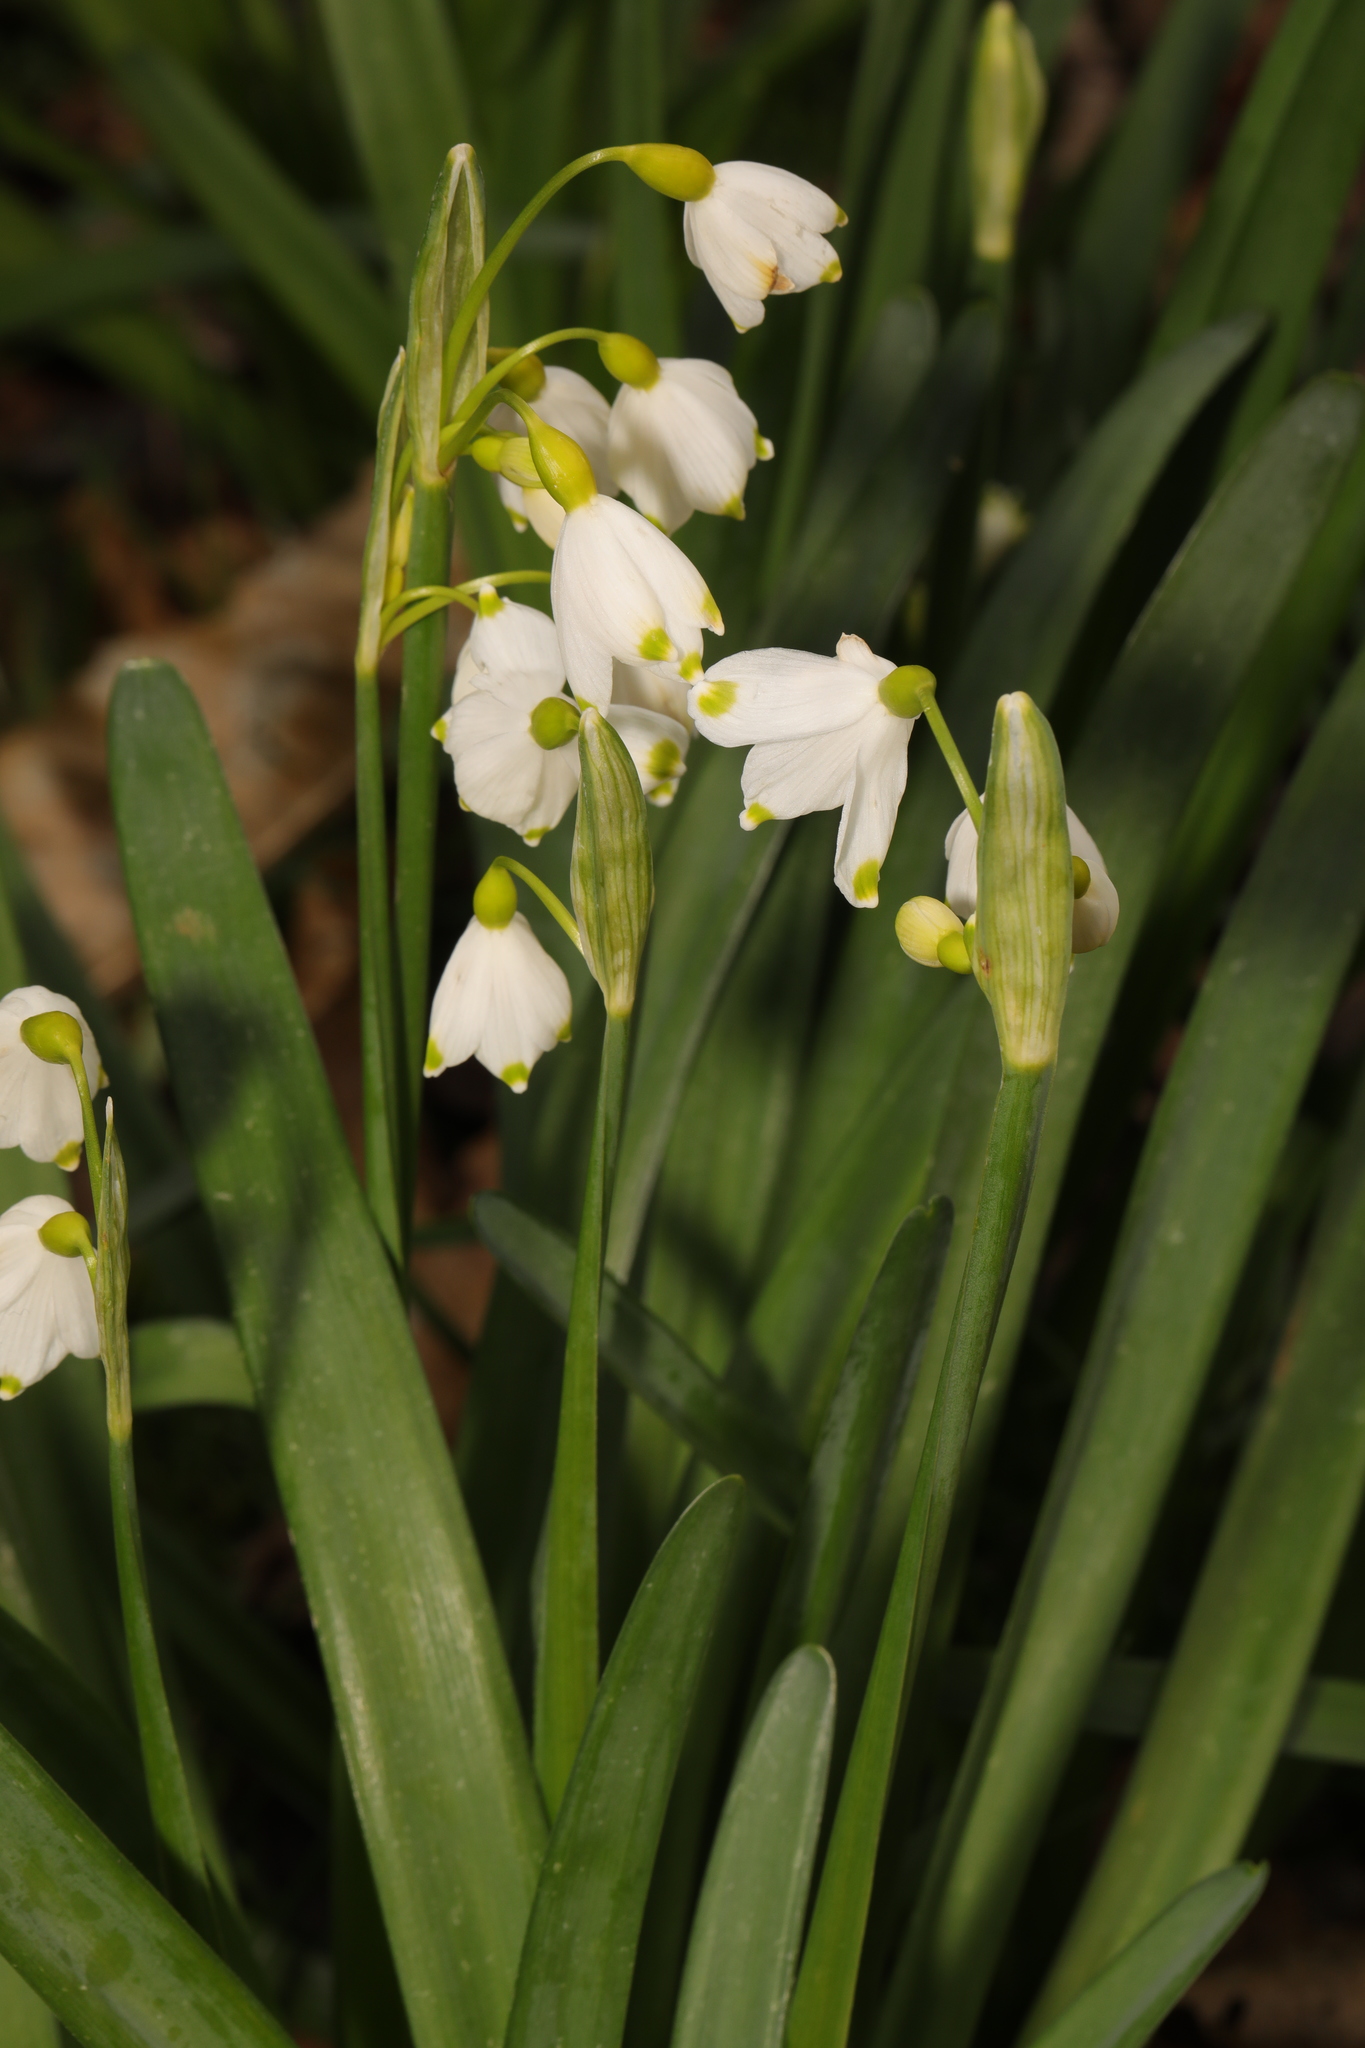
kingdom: Plantae
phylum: Tracheophyta
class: Liliopsida
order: Asparagales
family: Amaryllidaceae
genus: Leucojum
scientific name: Leucojum aestivum
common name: Summer snowflake
